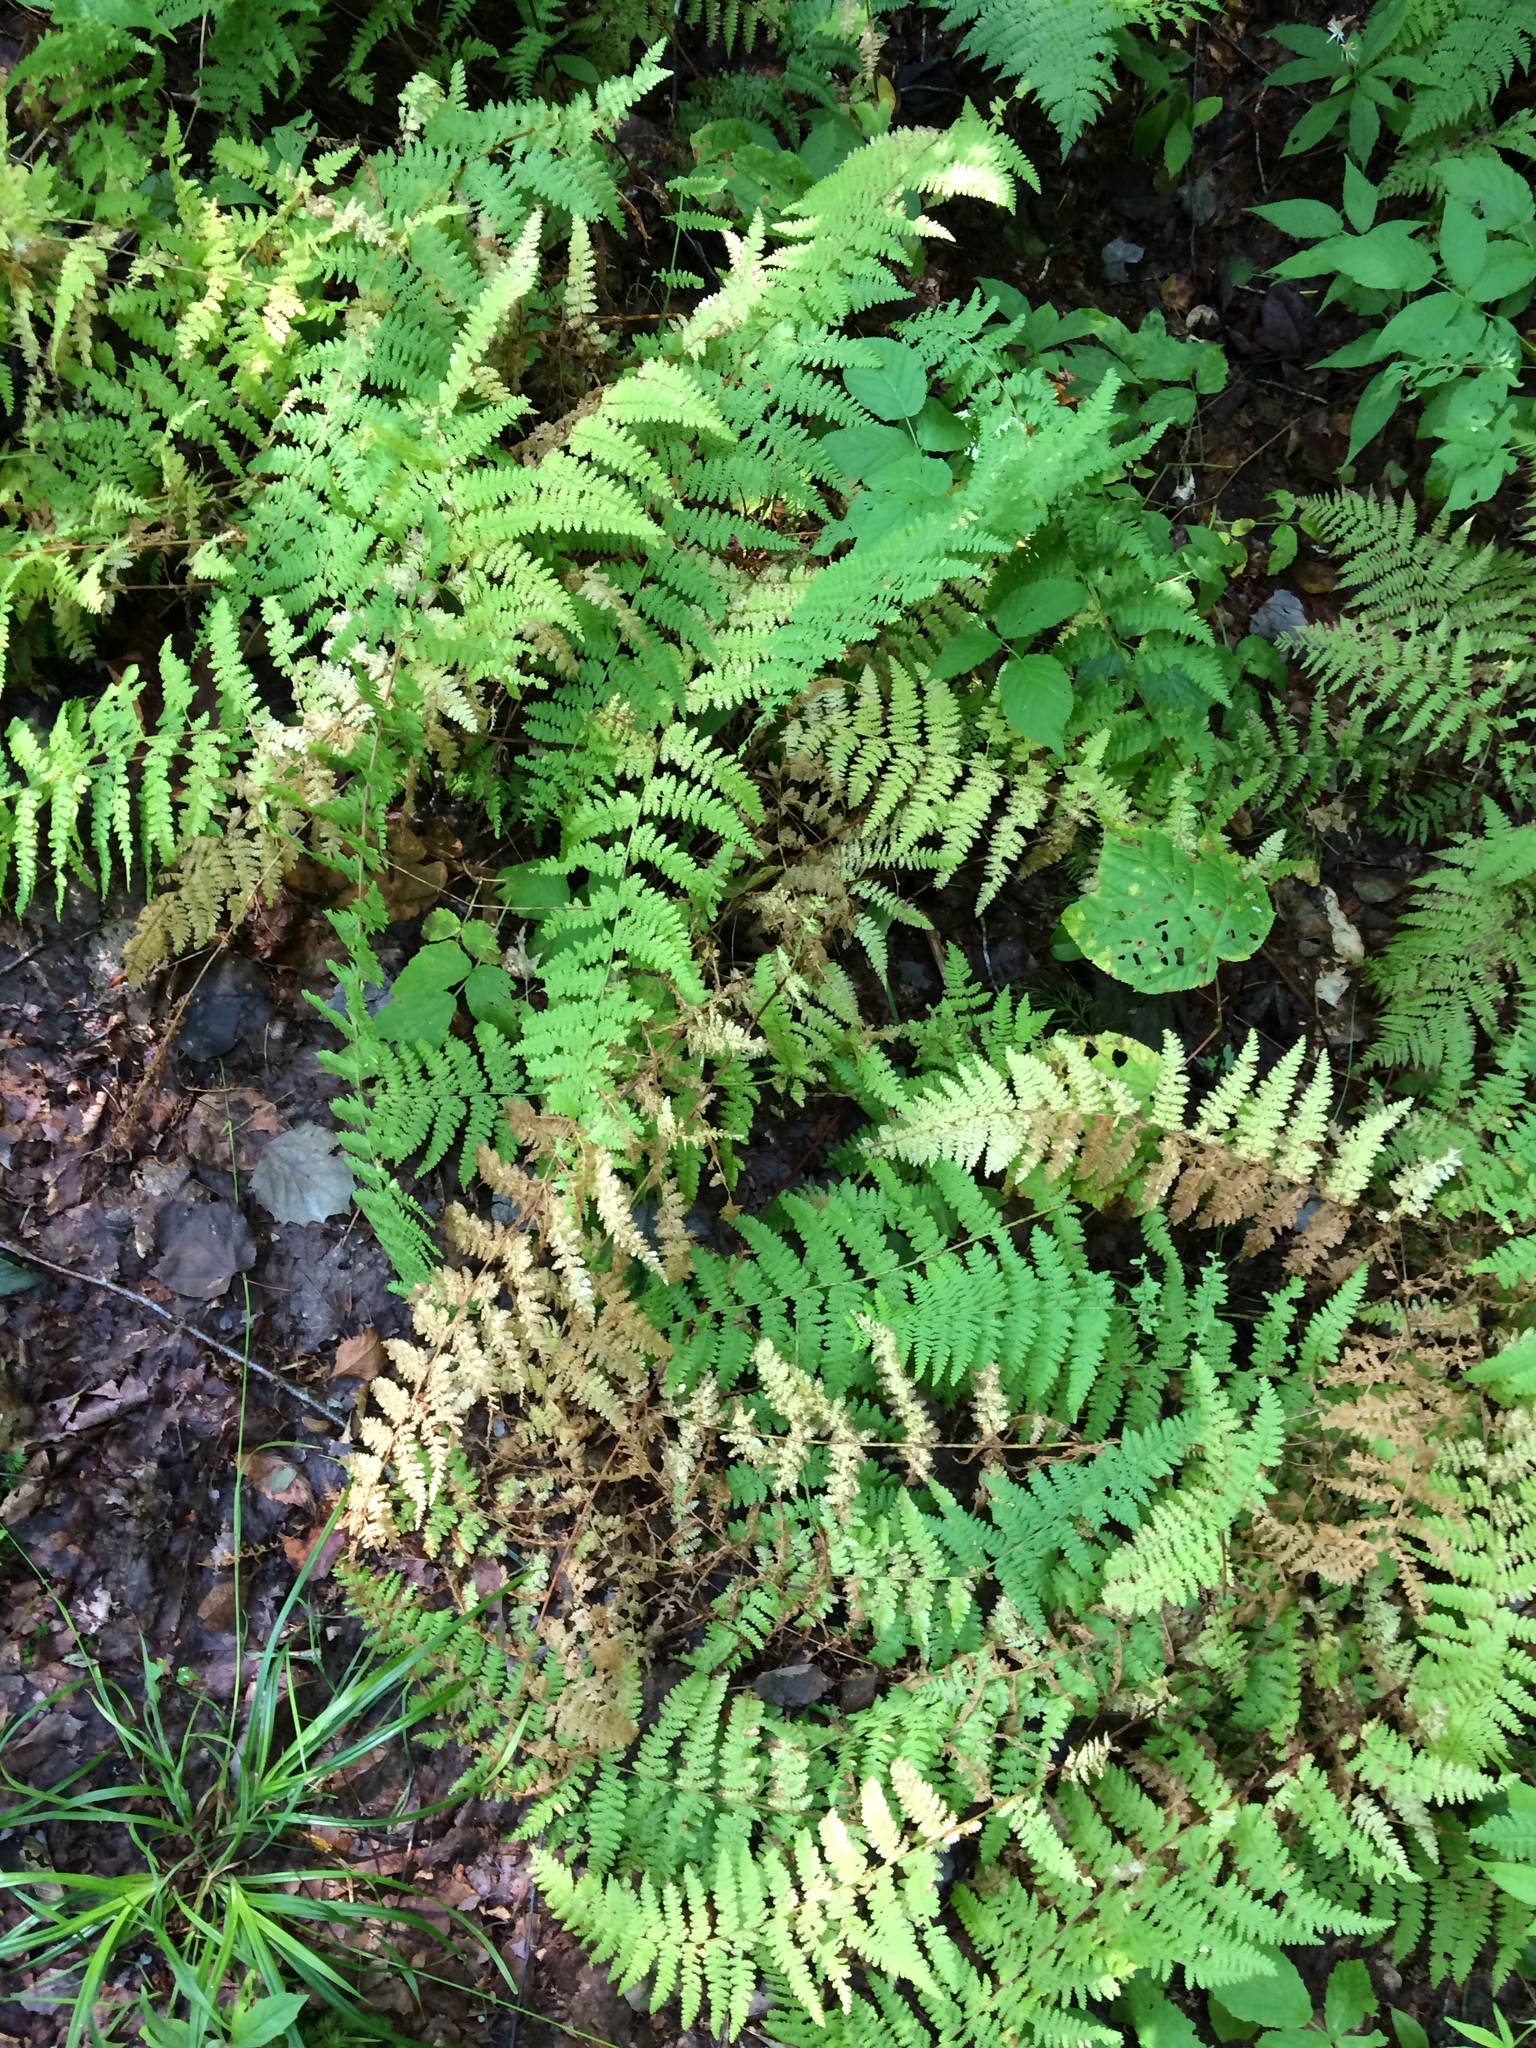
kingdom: Plantae
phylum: Tracheophyta
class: Polypodiopsida
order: Polypodiales
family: Dennstaedtiaceae
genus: Sitobolium
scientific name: Sitobolium punctilobum
